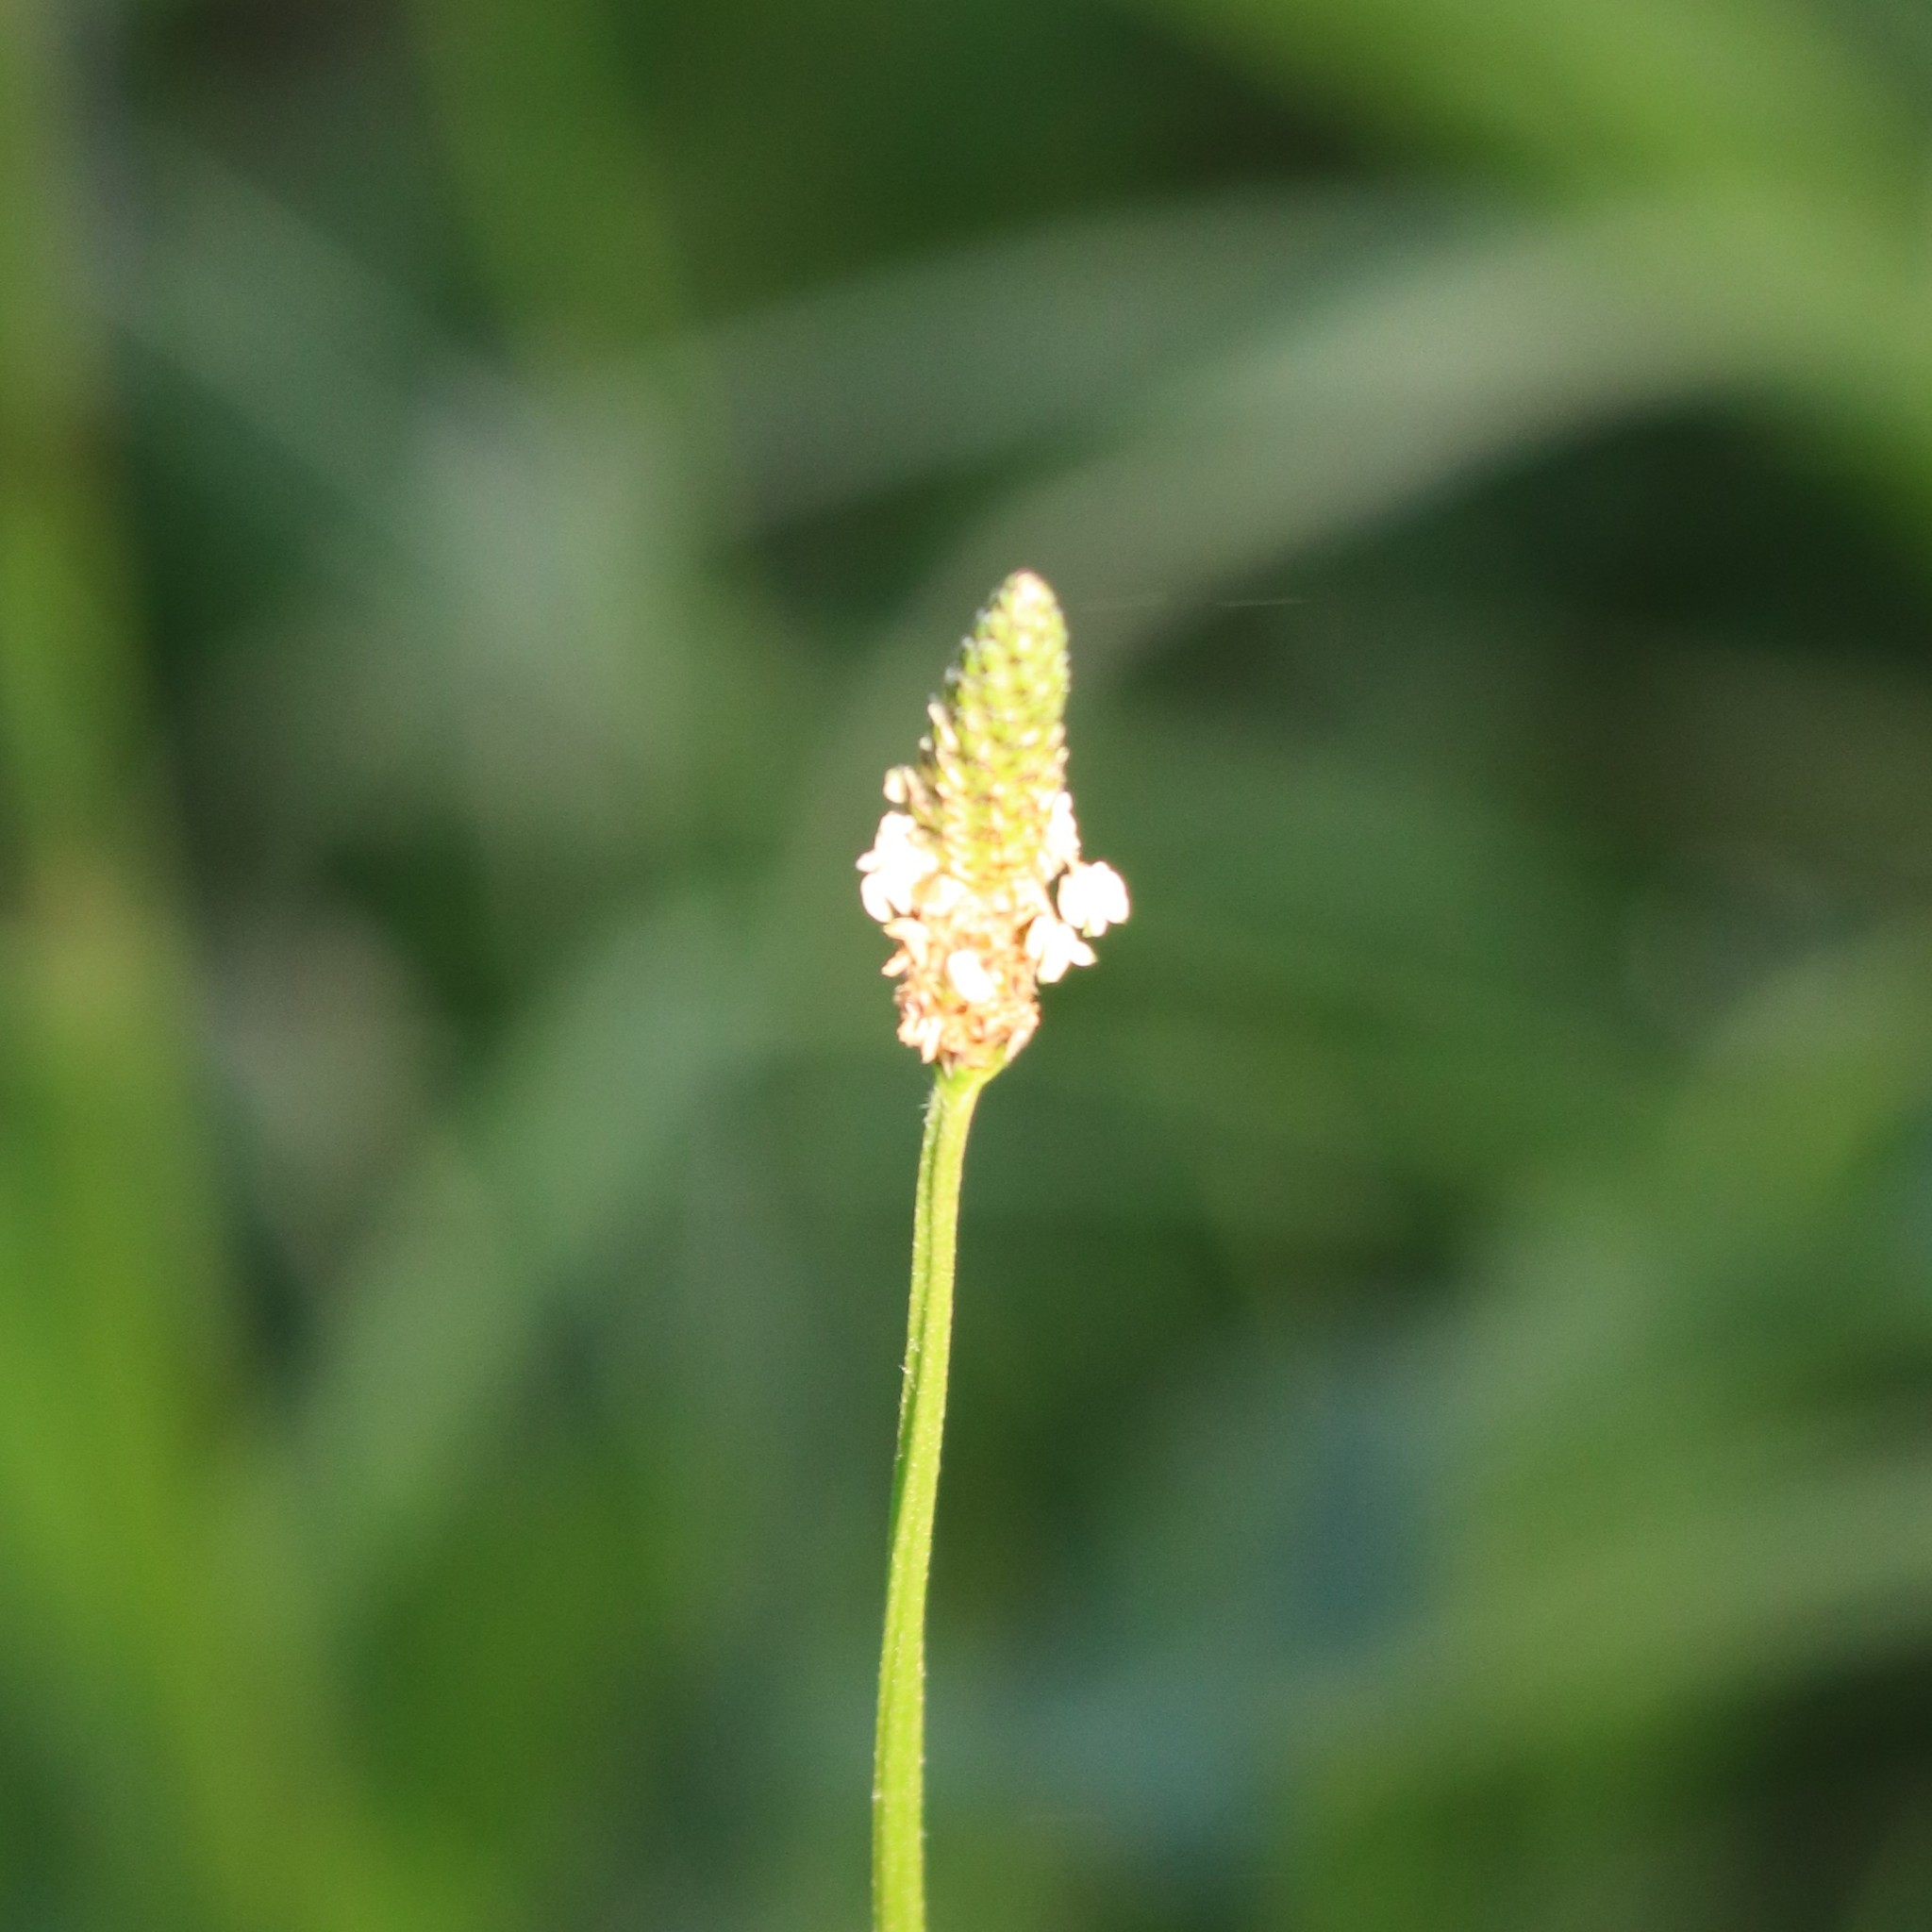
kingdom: Plantae
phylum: Tracheophyta
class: Magnoliopsida
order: Lamiales
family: Plantaginaceae
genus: Plantago
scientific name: Plantago lanceolata
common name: Ribwort plantain
